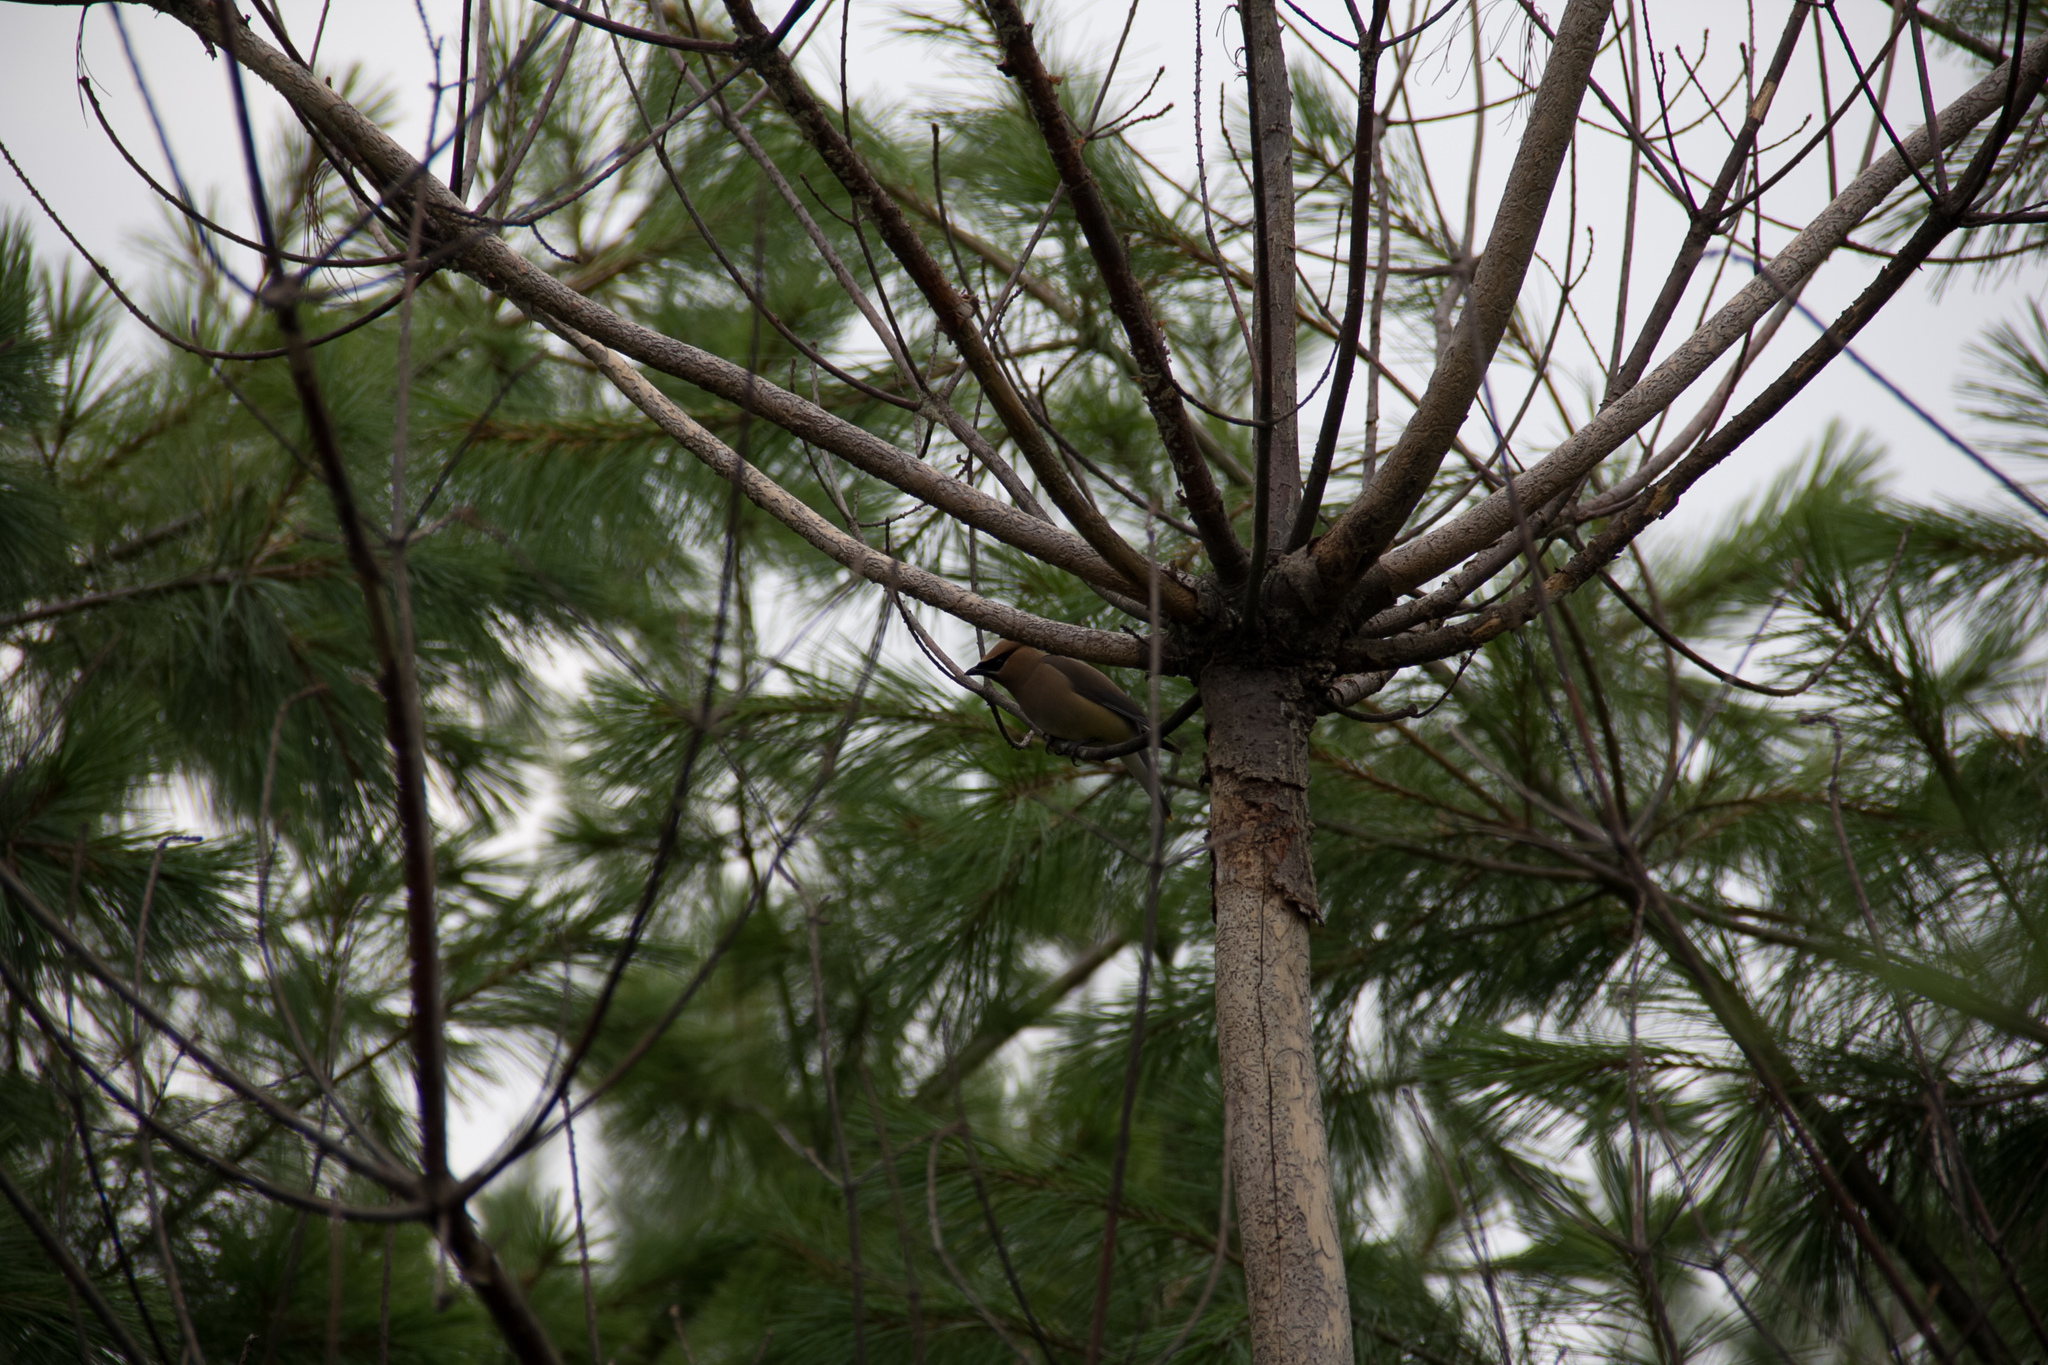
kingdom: Animalia
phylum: Chordata
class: Aves
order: Passeriformes
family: Bombycillidae
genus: Bombycilla
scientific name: Bombycilla cedrorum
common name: Cedar waxwing
